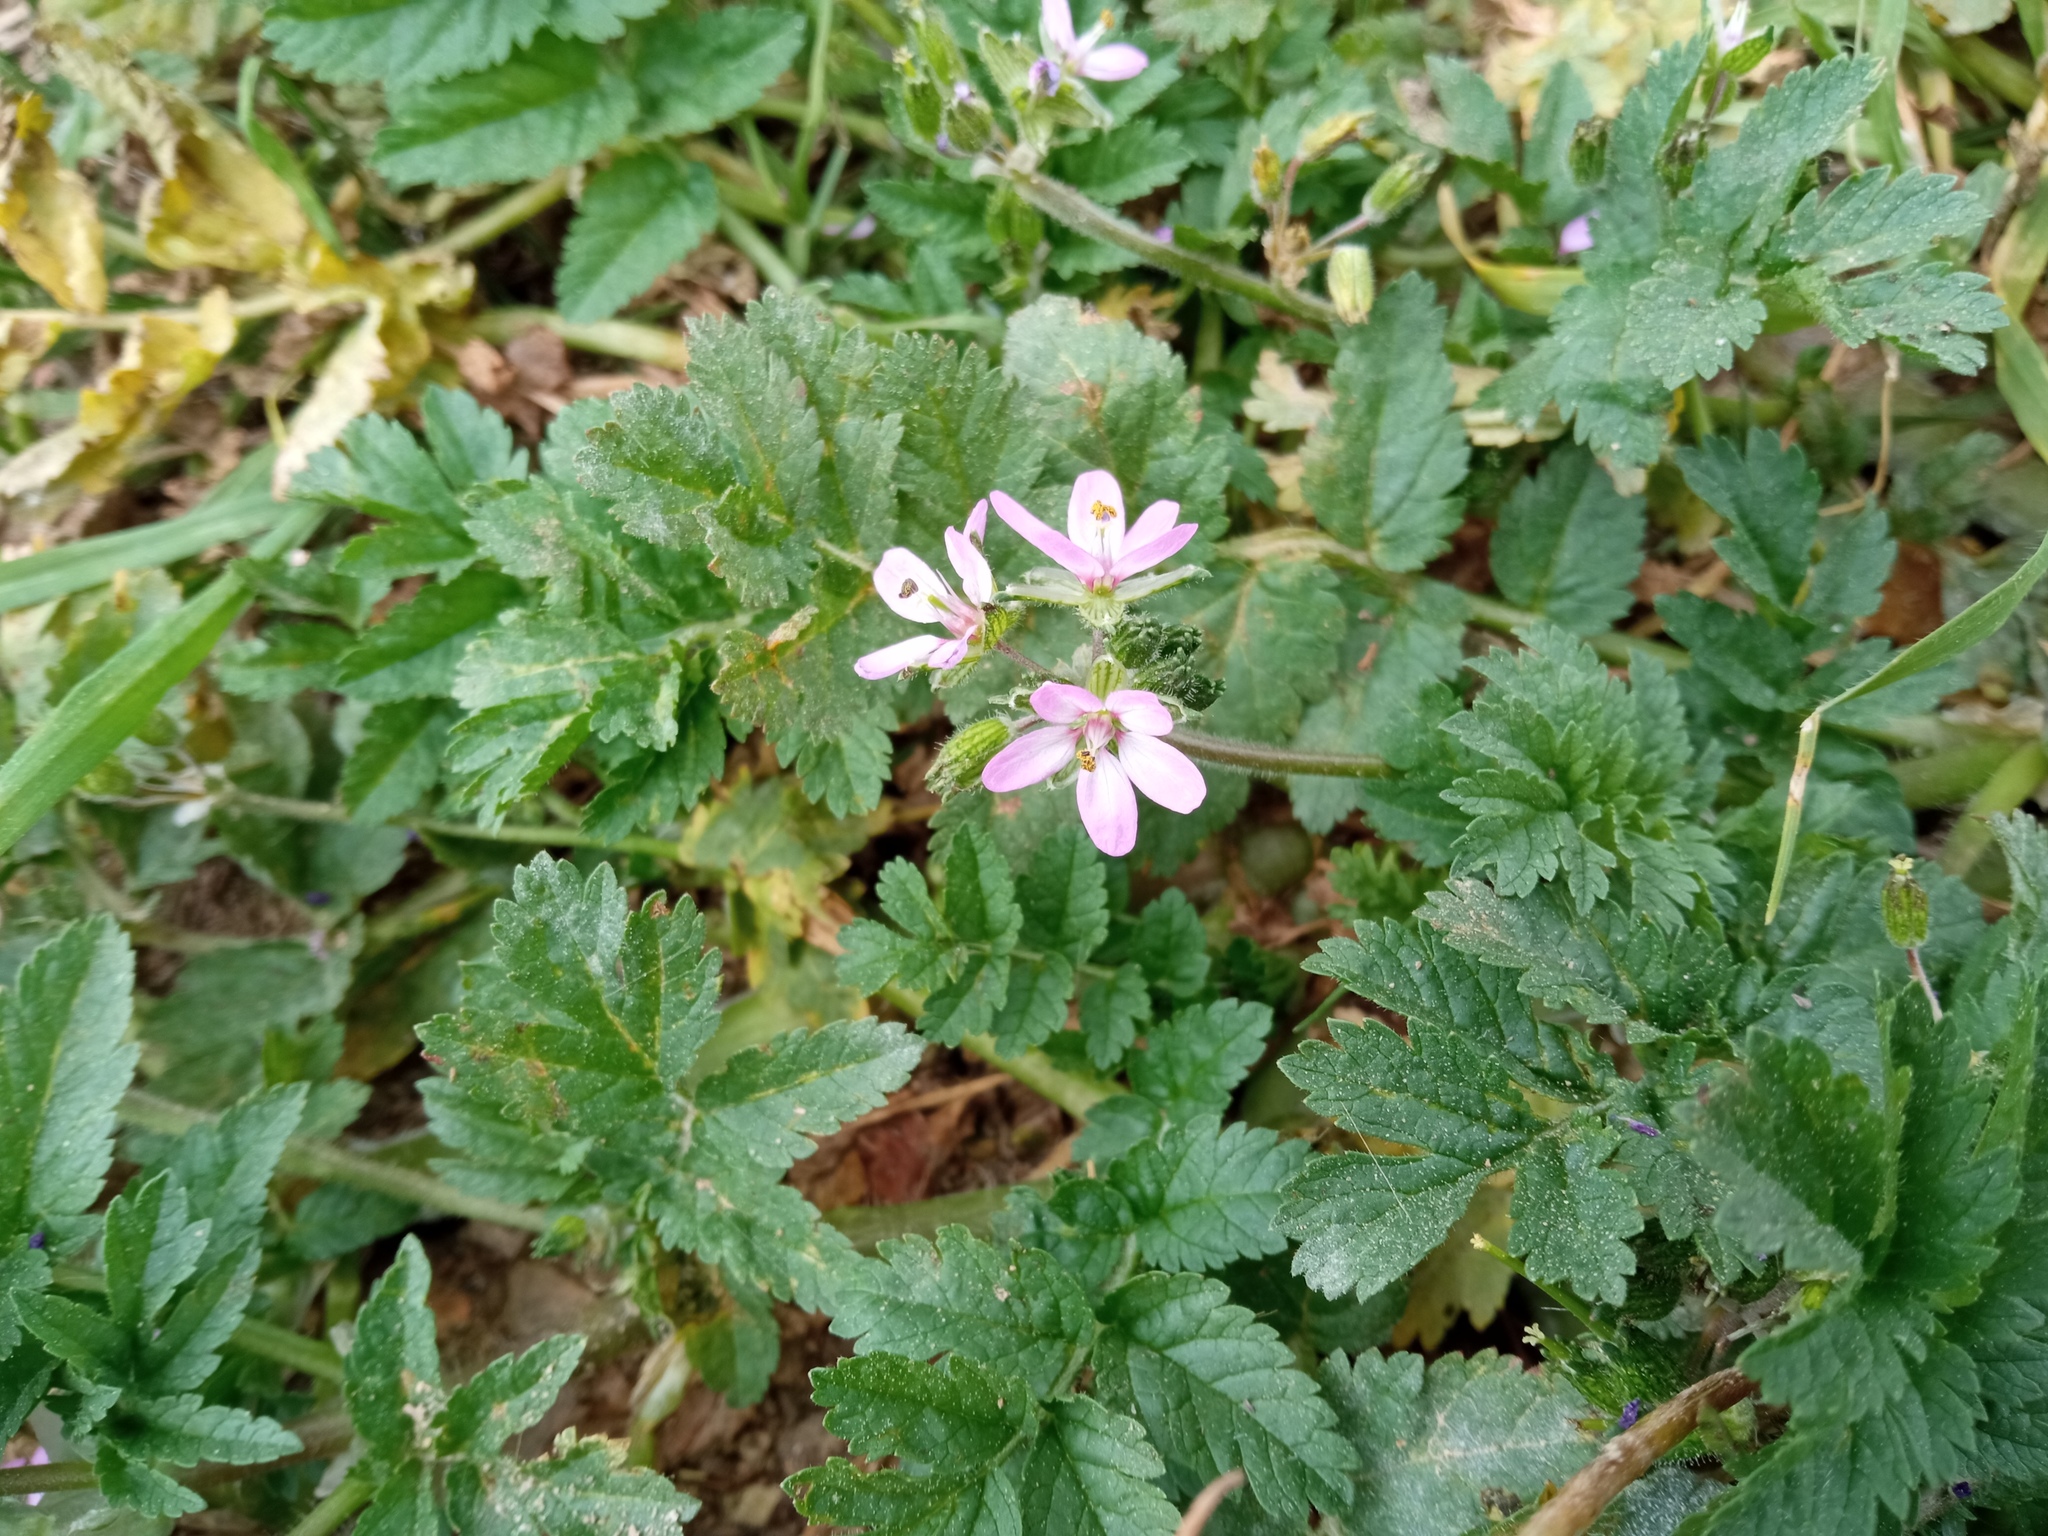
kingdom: Plantae
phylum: Tracheophyta
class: Magnoliopsida
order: Geraniales
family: Geraniaceae
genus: Erodium
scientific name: Erodium moschatum
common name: Musk stork's-bill
